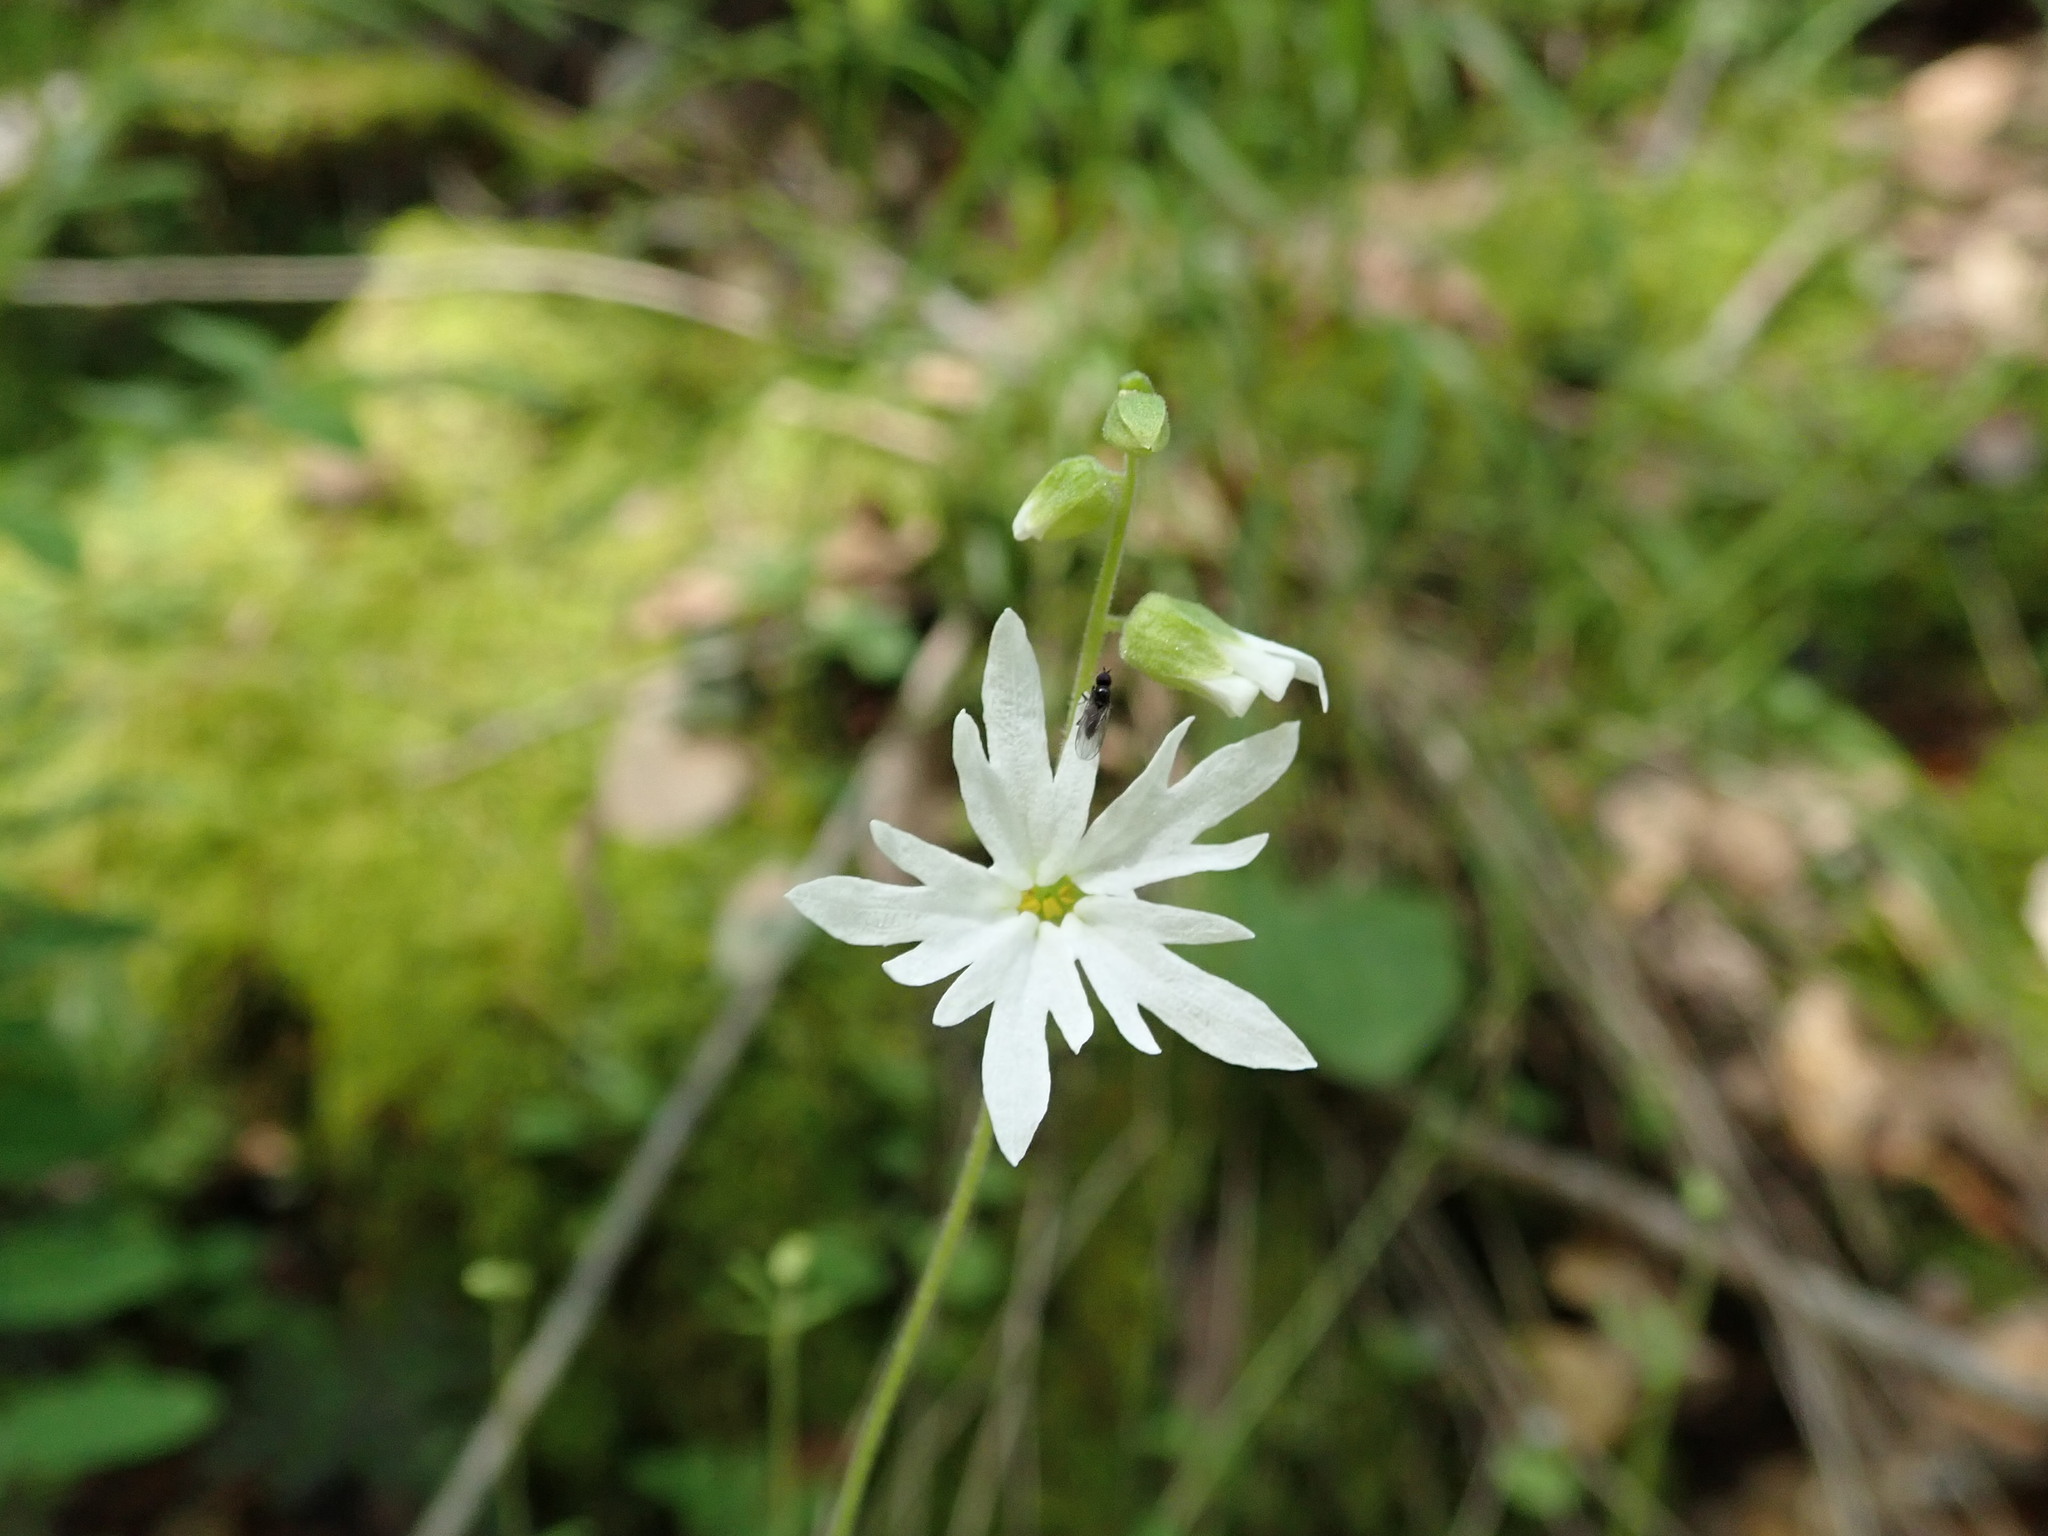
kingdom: Plantae
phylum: Tracheophyta
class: Magnoliopsida
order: Saxifragales
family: Saxifragaceae
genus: Lithophragma
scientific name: Lithophragma heterophyllum
